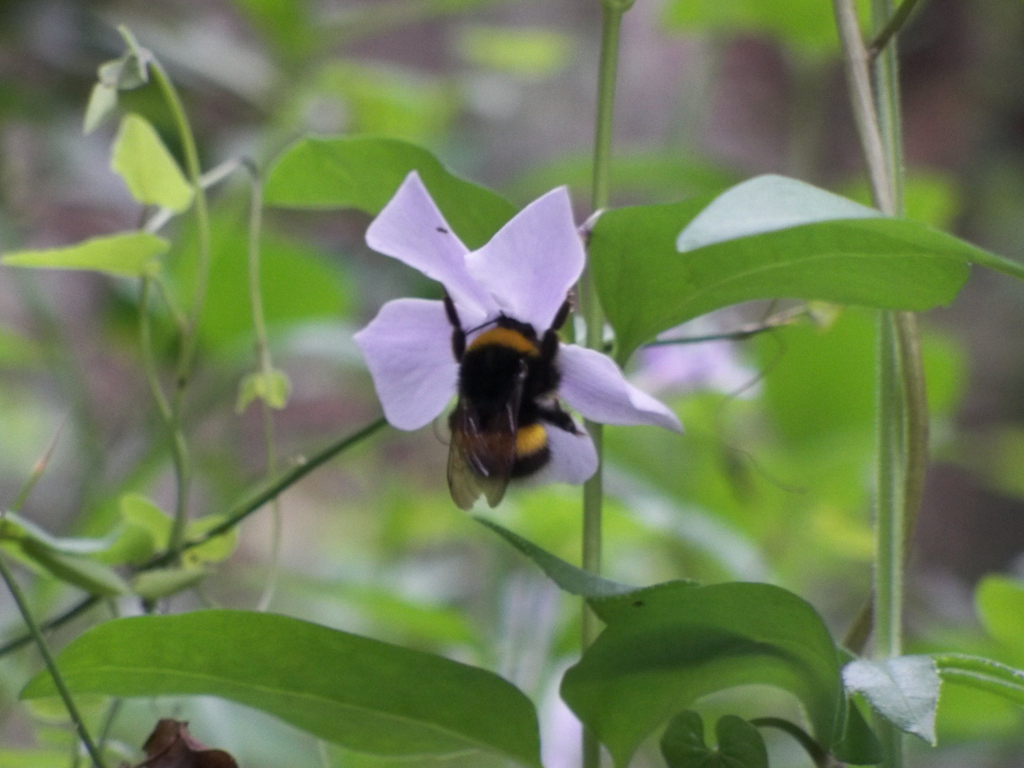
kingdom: Plantae
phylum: Tracheophyta
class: Magnoliopsida
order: Gentianales
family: Apocynaceae
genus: Vinca
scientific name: Vinca difformis
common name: Intermediate periwinkle
